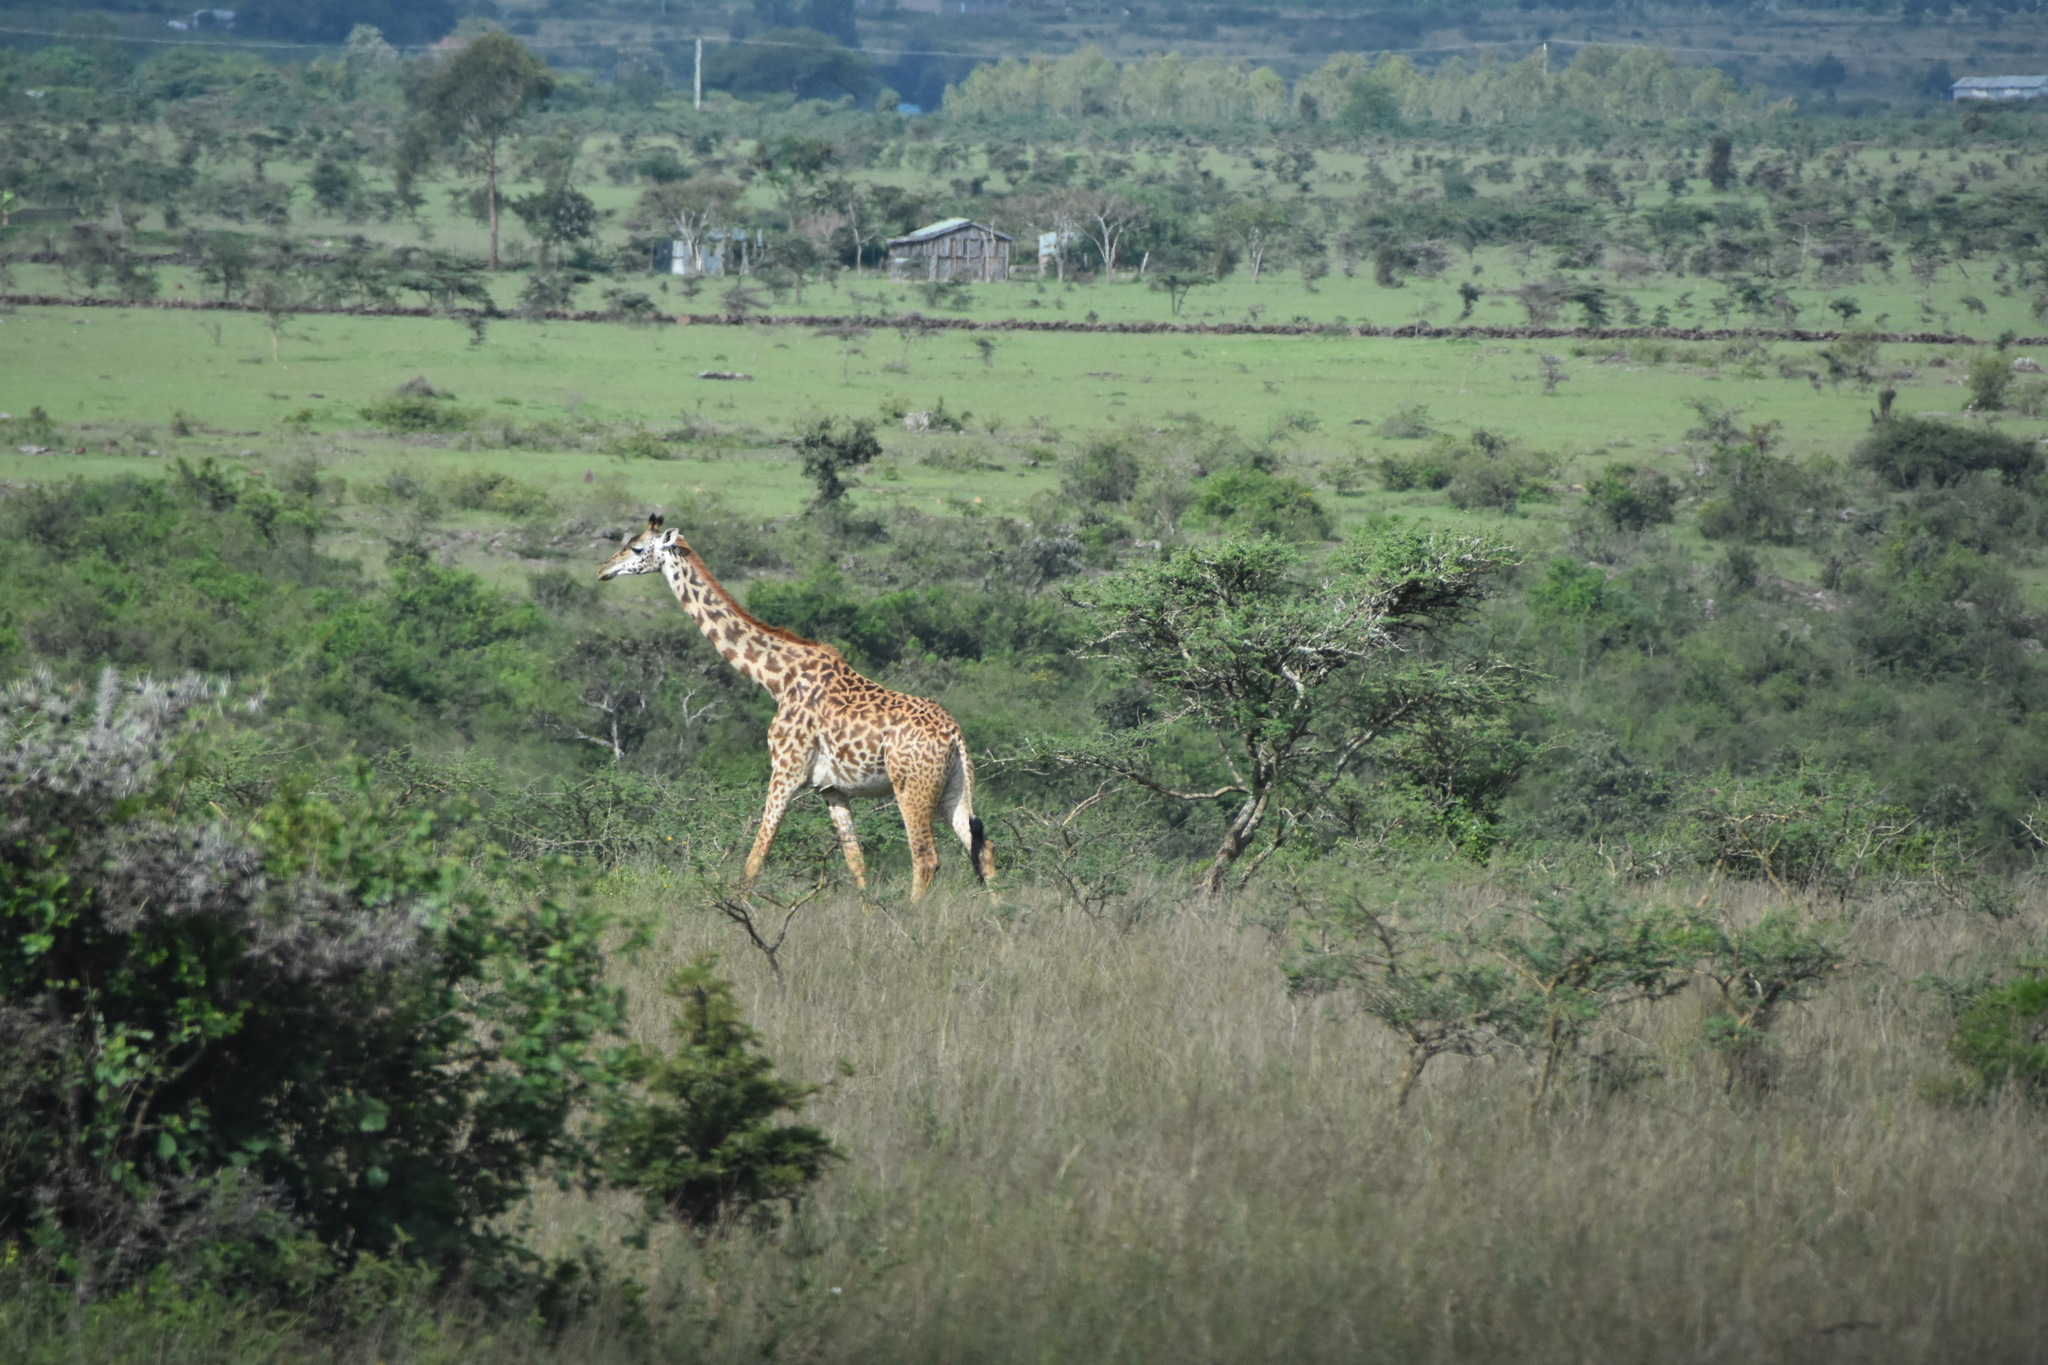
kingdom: Animalia
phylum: Chordata
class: Mammalia
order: Artiodactyla
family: Giraffidae
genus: Giraffa
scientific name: Giraffa tippelskirchi
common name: Masai giraffe
